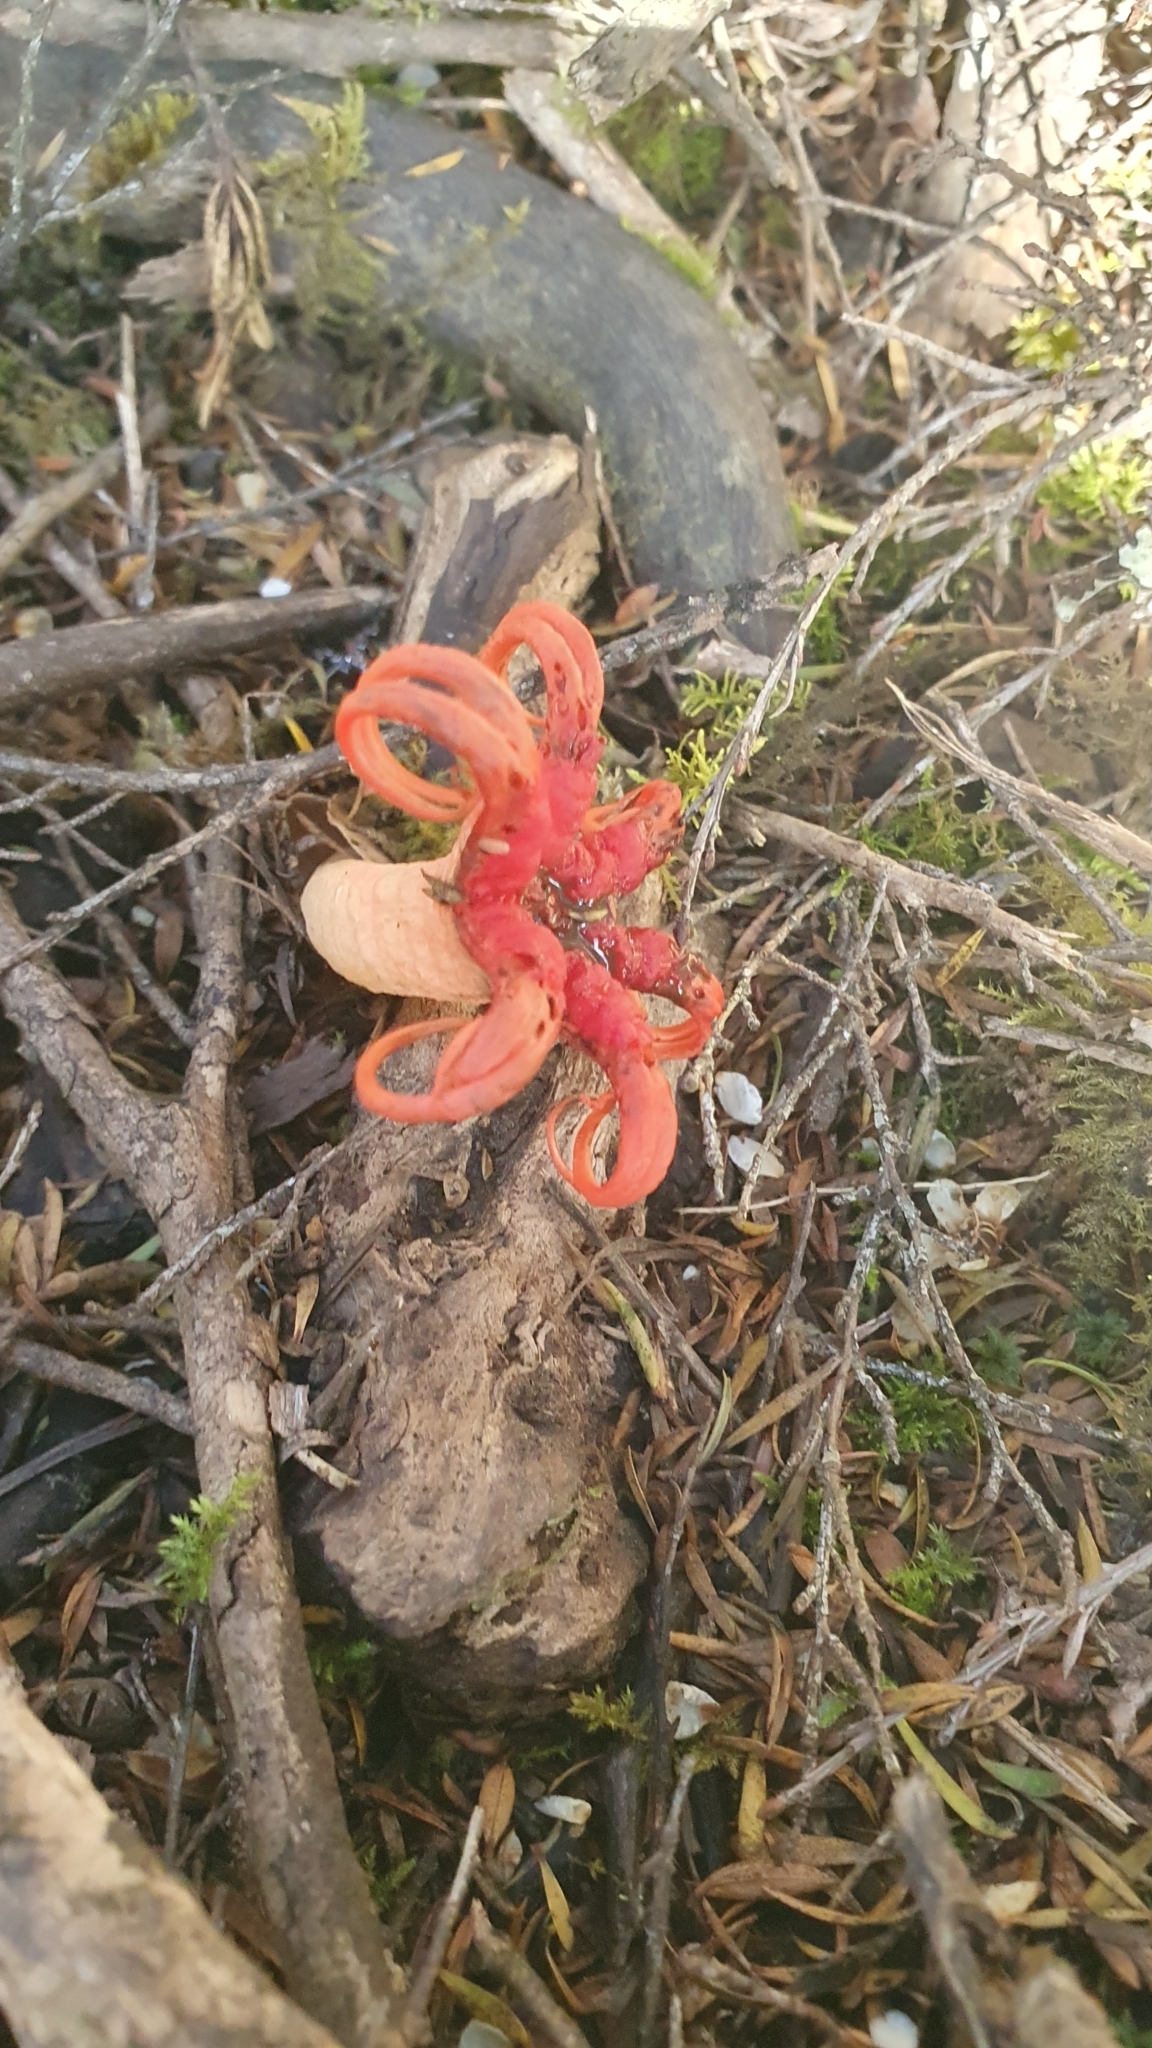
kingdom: Fungi
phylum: Basidiomycota
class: Agaricomycetes
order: Phallales
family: Phallaceae
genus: Aseroe
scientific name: Aseroe rubra
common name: Starfish fungus
